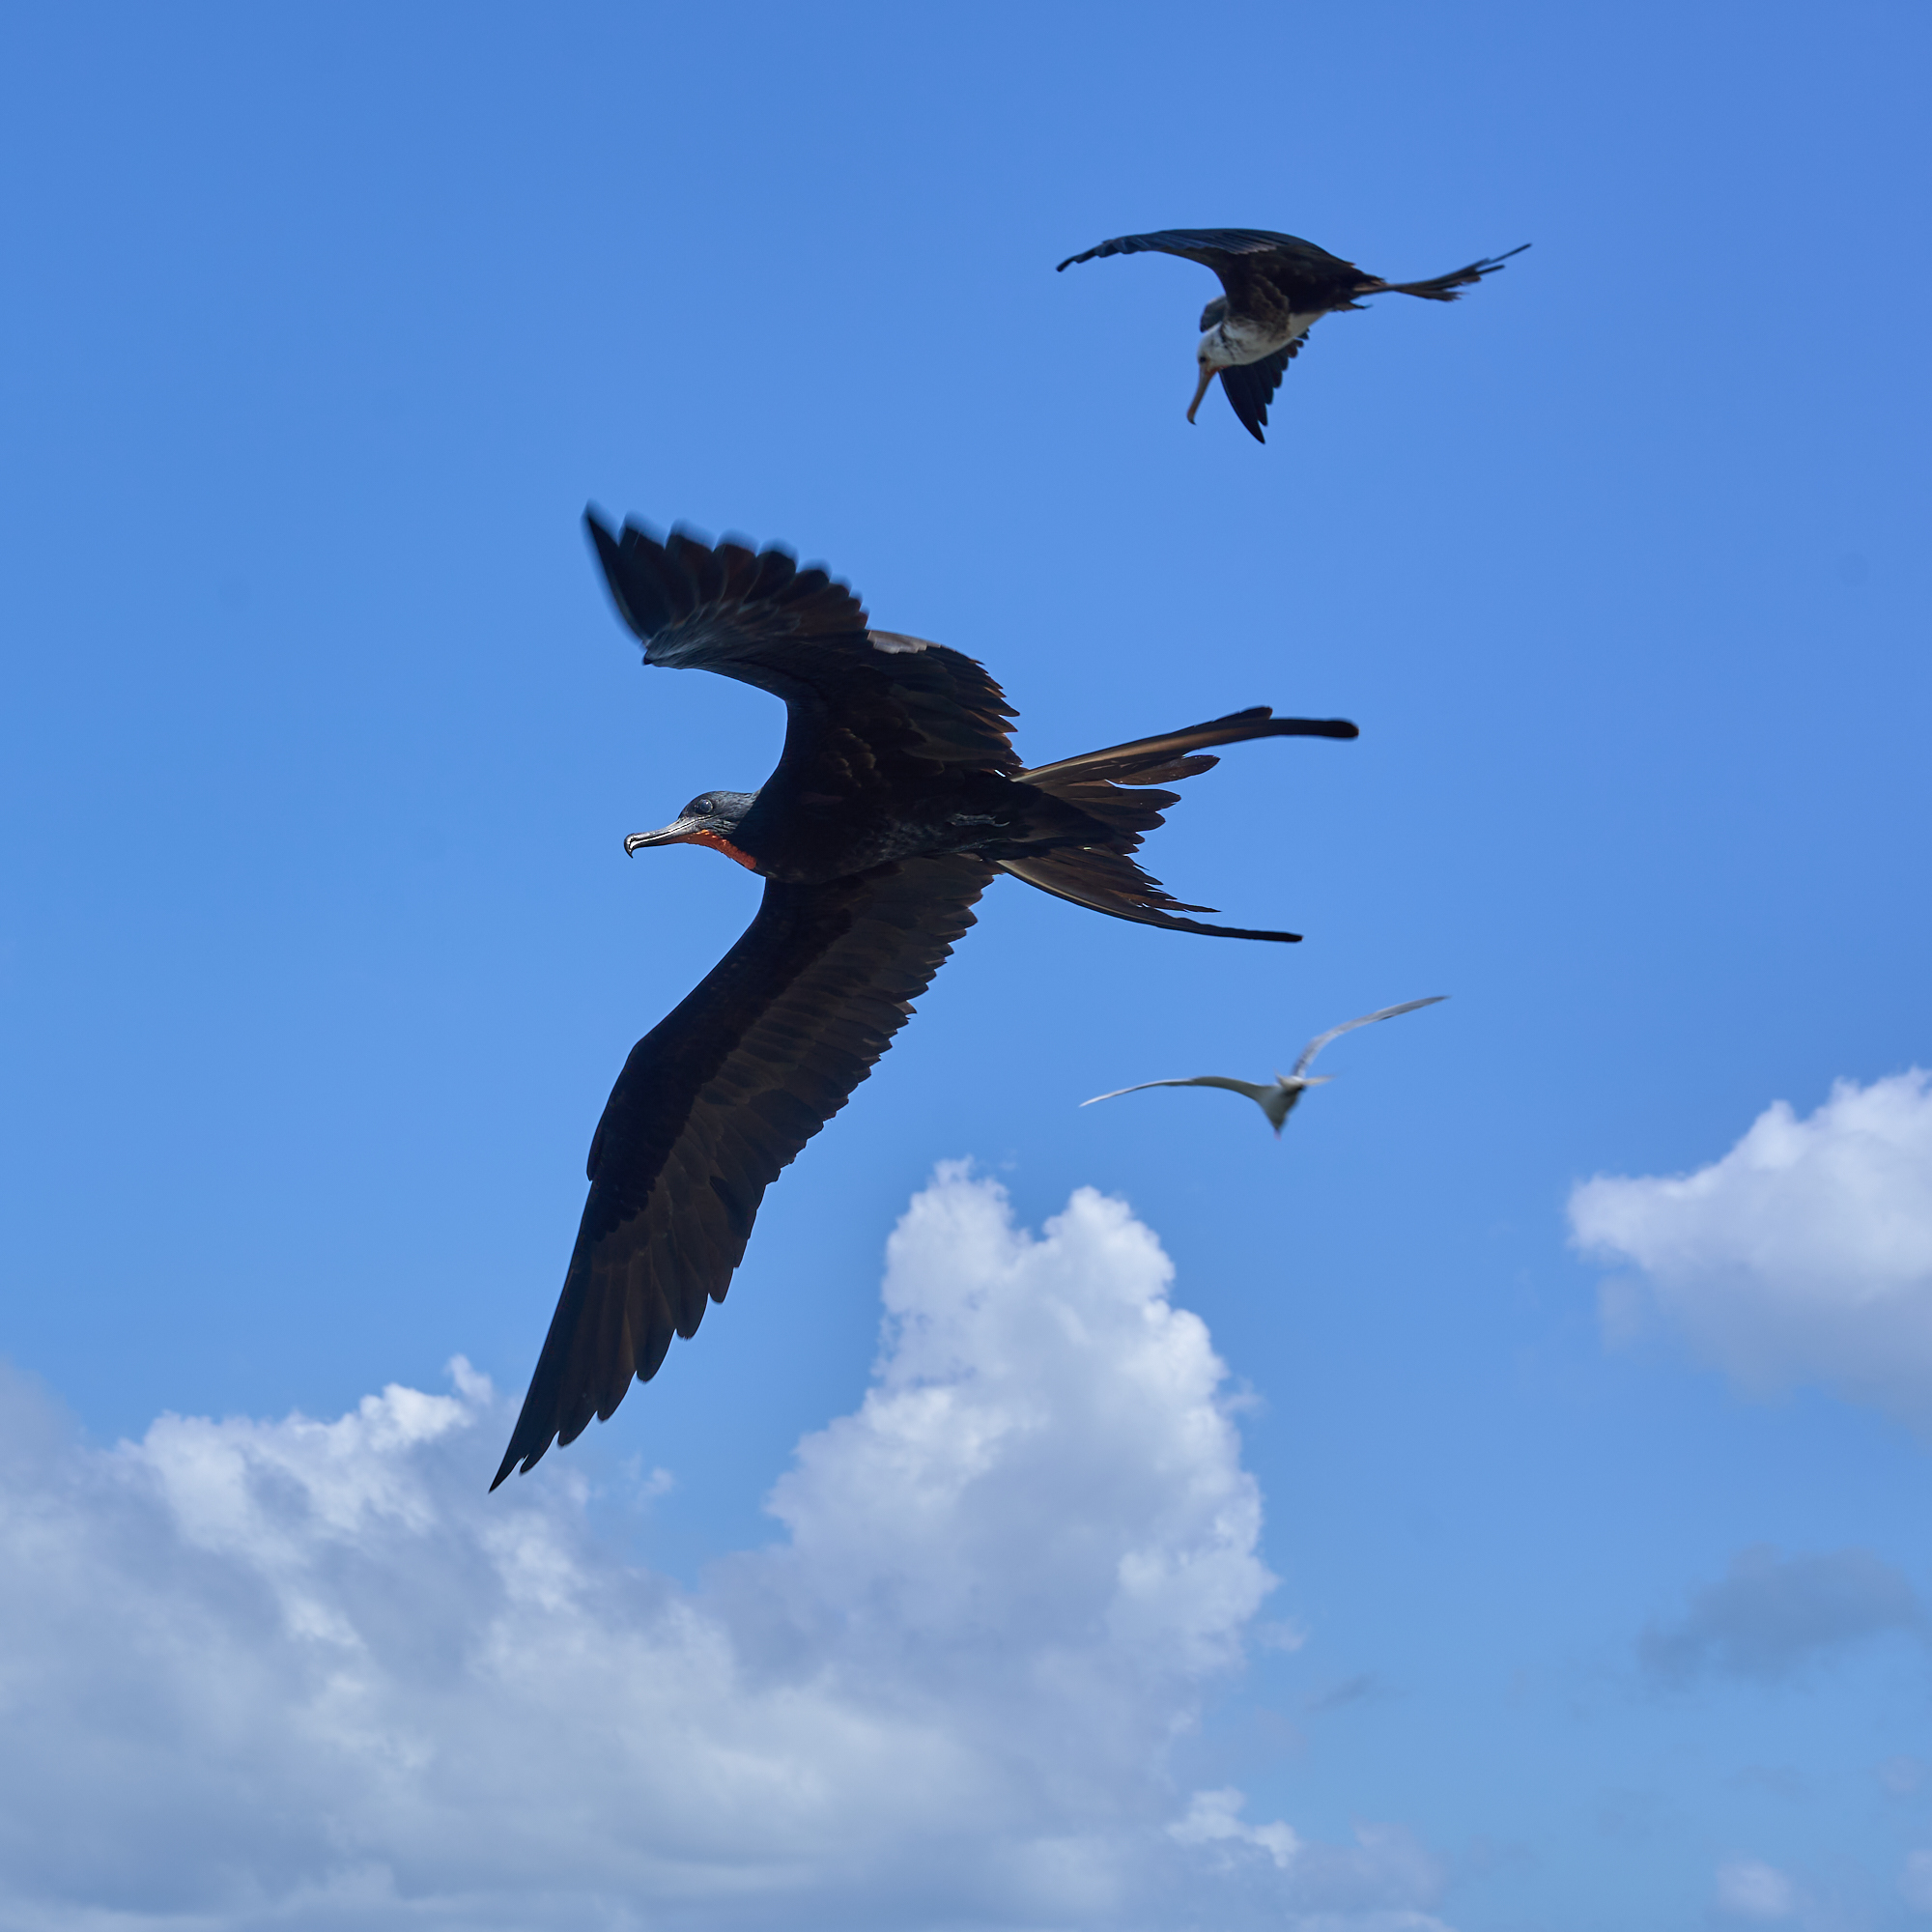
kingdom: Animalia
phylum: Chordata
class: Aves
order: Suliformes
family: Fregatidae
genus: Fregata
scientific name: Fregata magnificens
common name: Magnificent frigatebird
